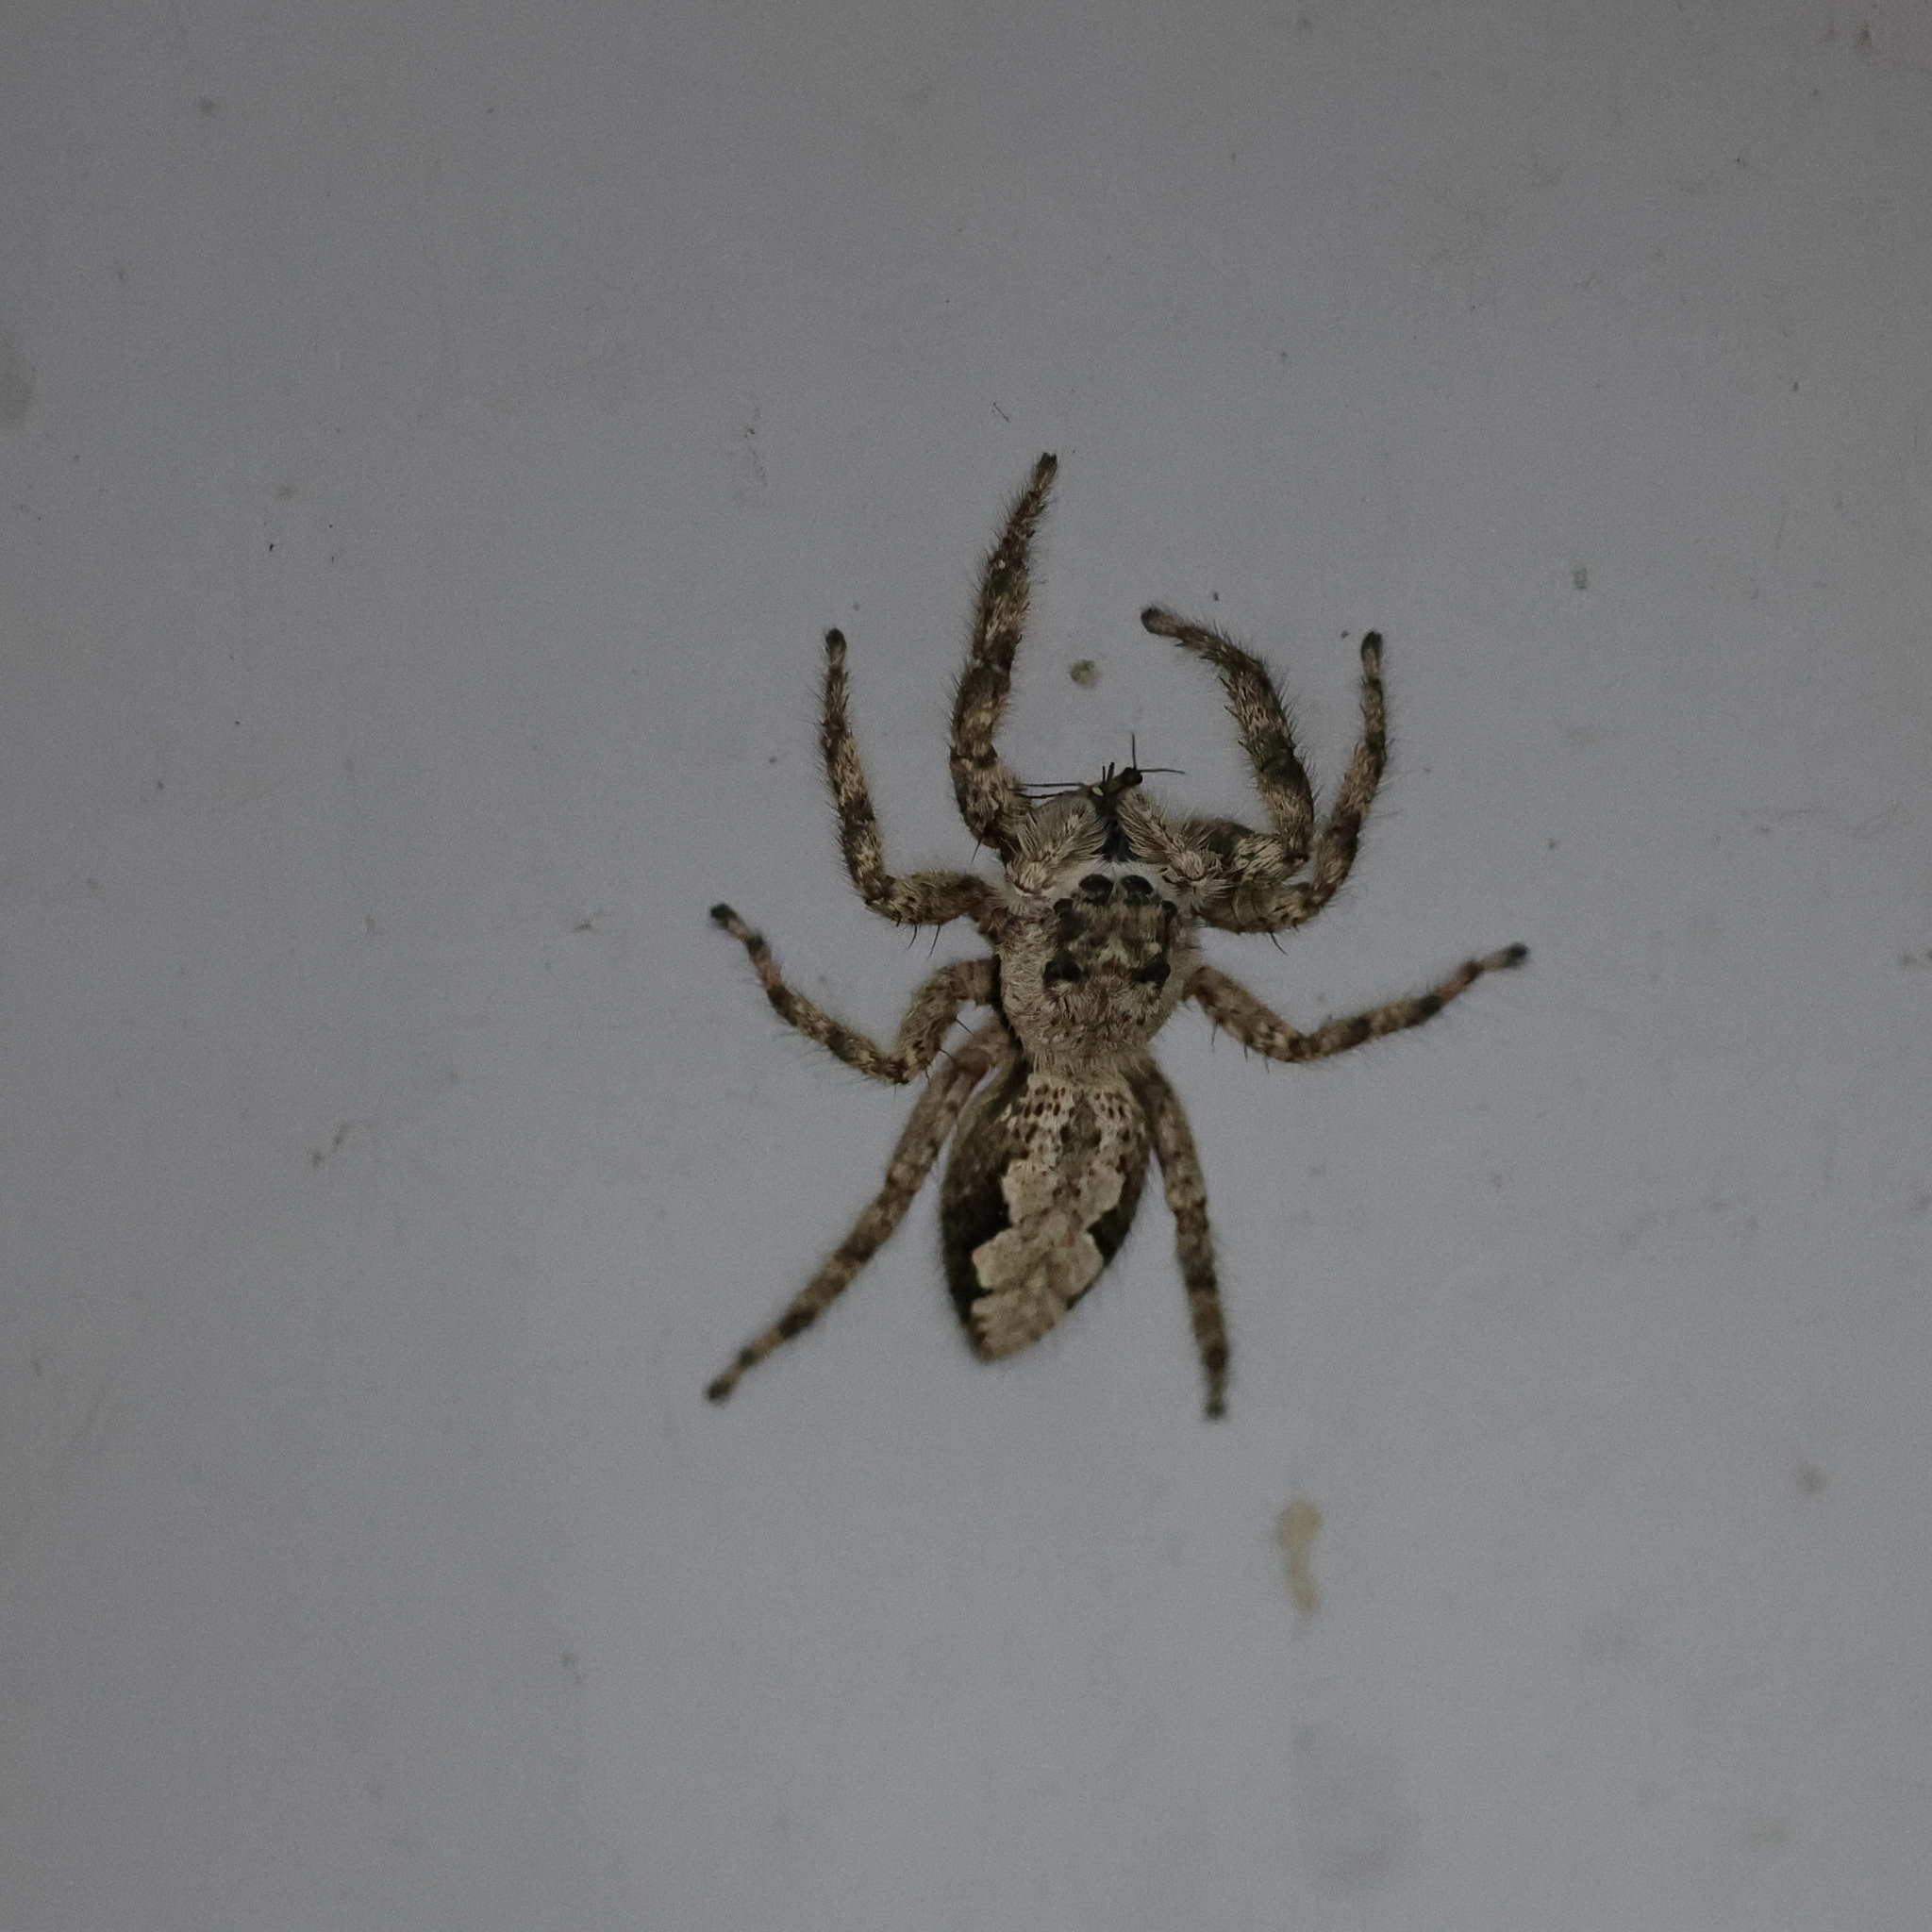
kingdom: Animalia
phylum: Arthropoda
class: Arachnida
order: Araneae
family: Salticidae
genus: Platycryptus
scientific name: Platycryptus undatus
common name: Tan jumping spider
